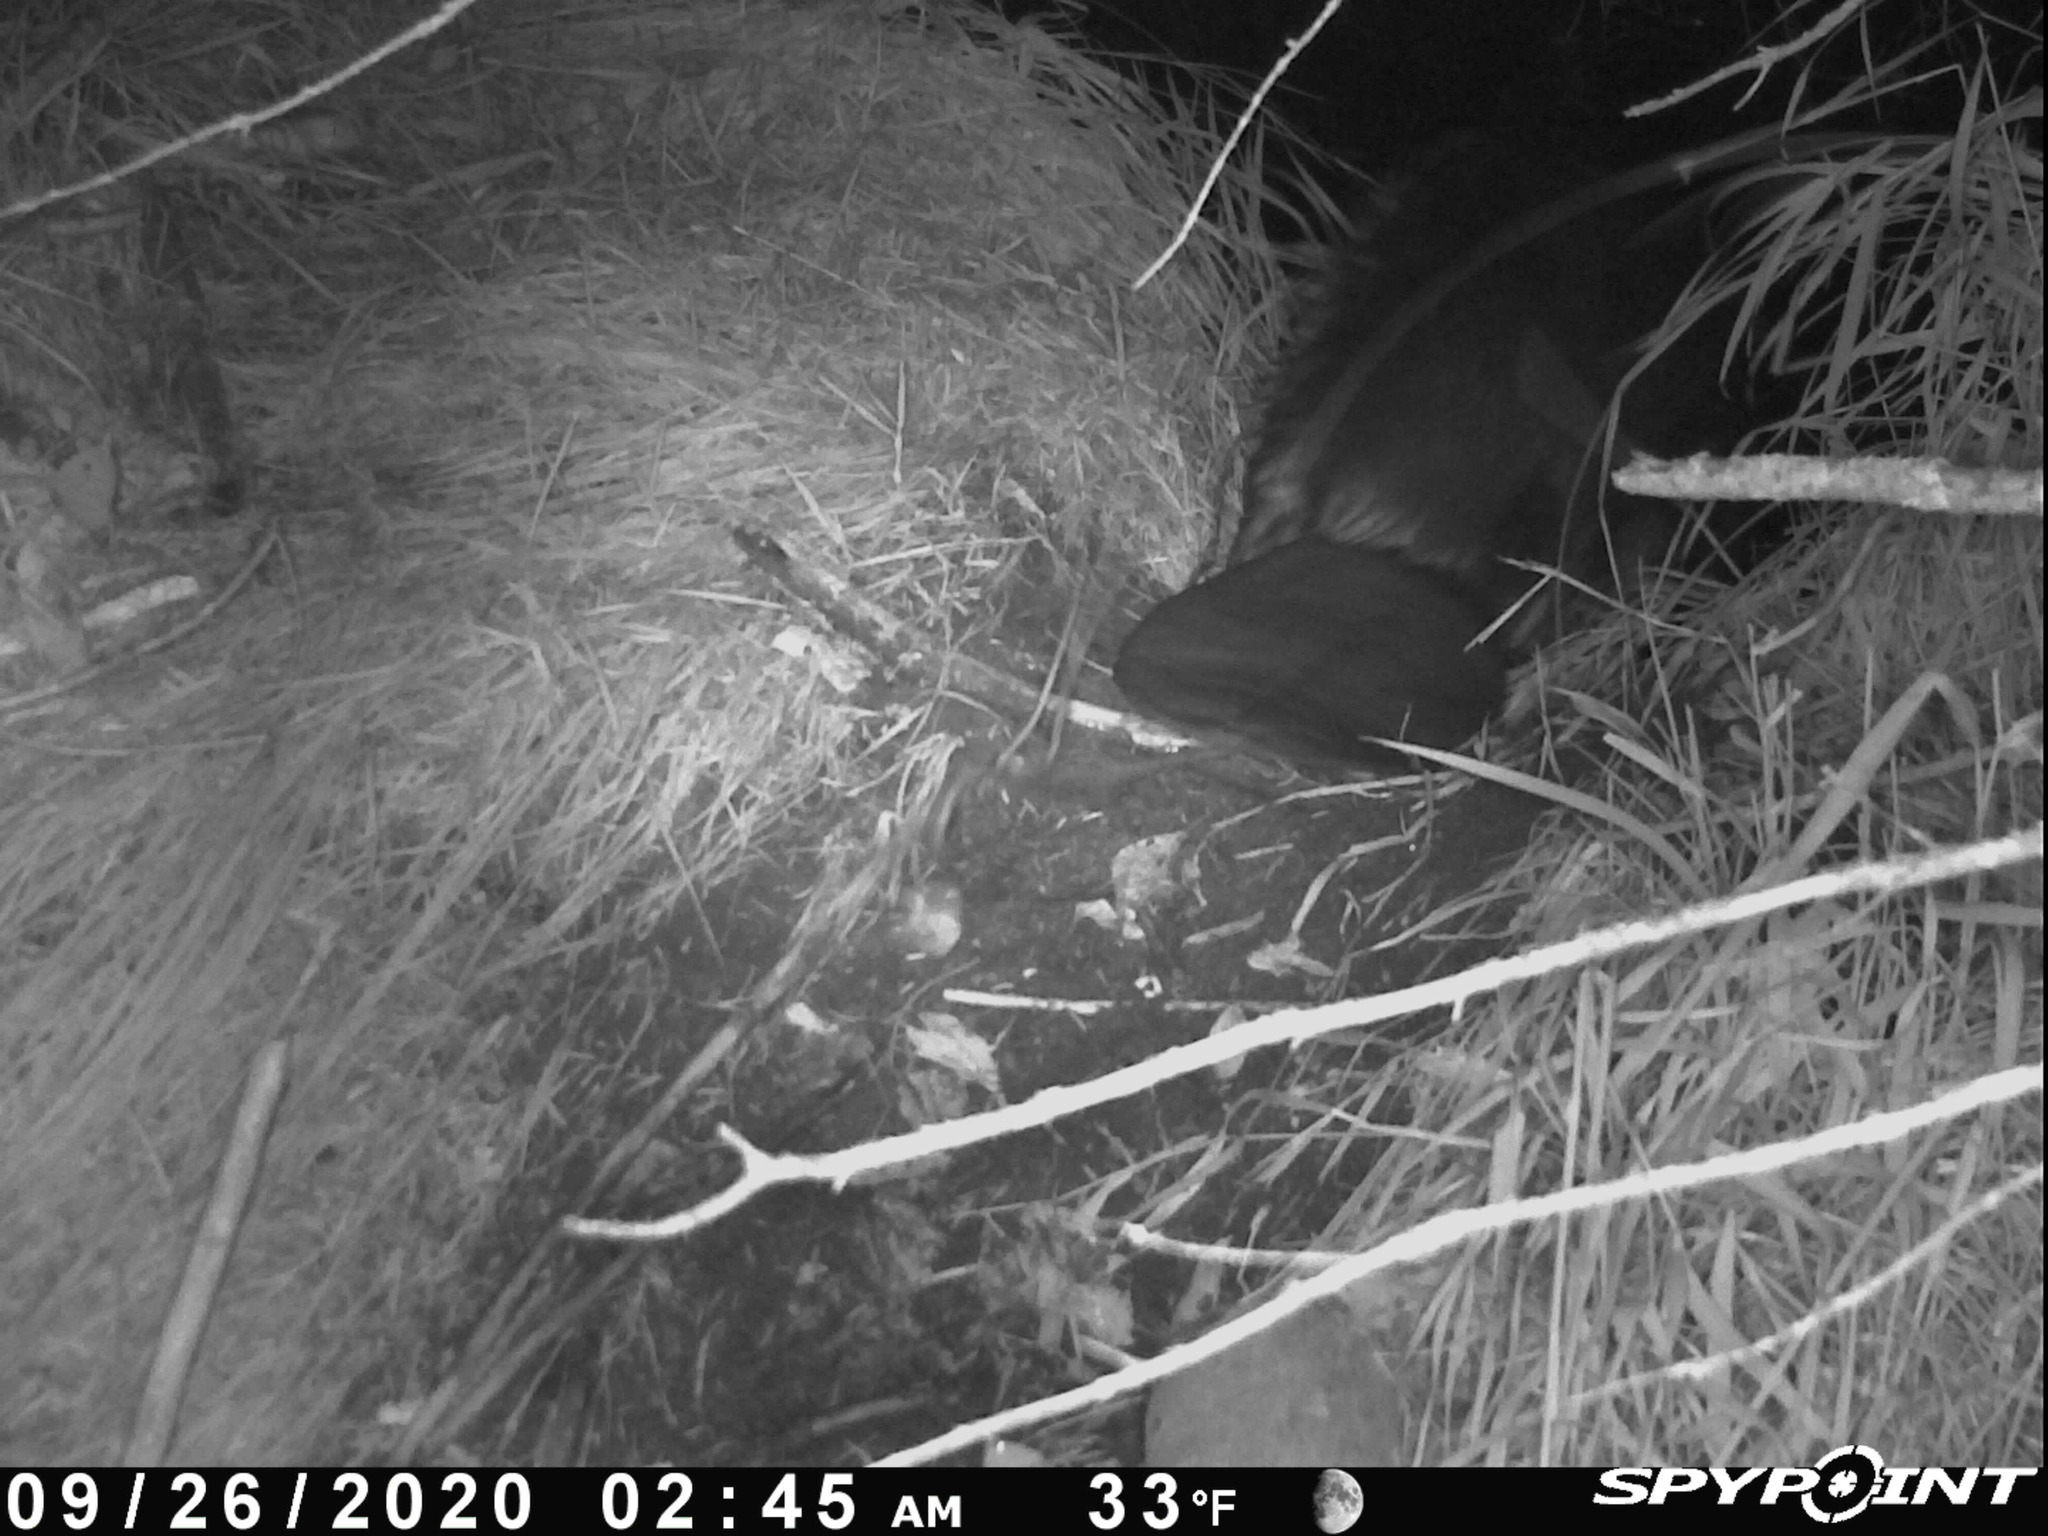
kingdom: Animalia
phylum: Chordata
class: Mammalia
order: Rodentia
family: Castoridae
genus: Castor
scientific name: Castor canadensis
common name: American beaver
